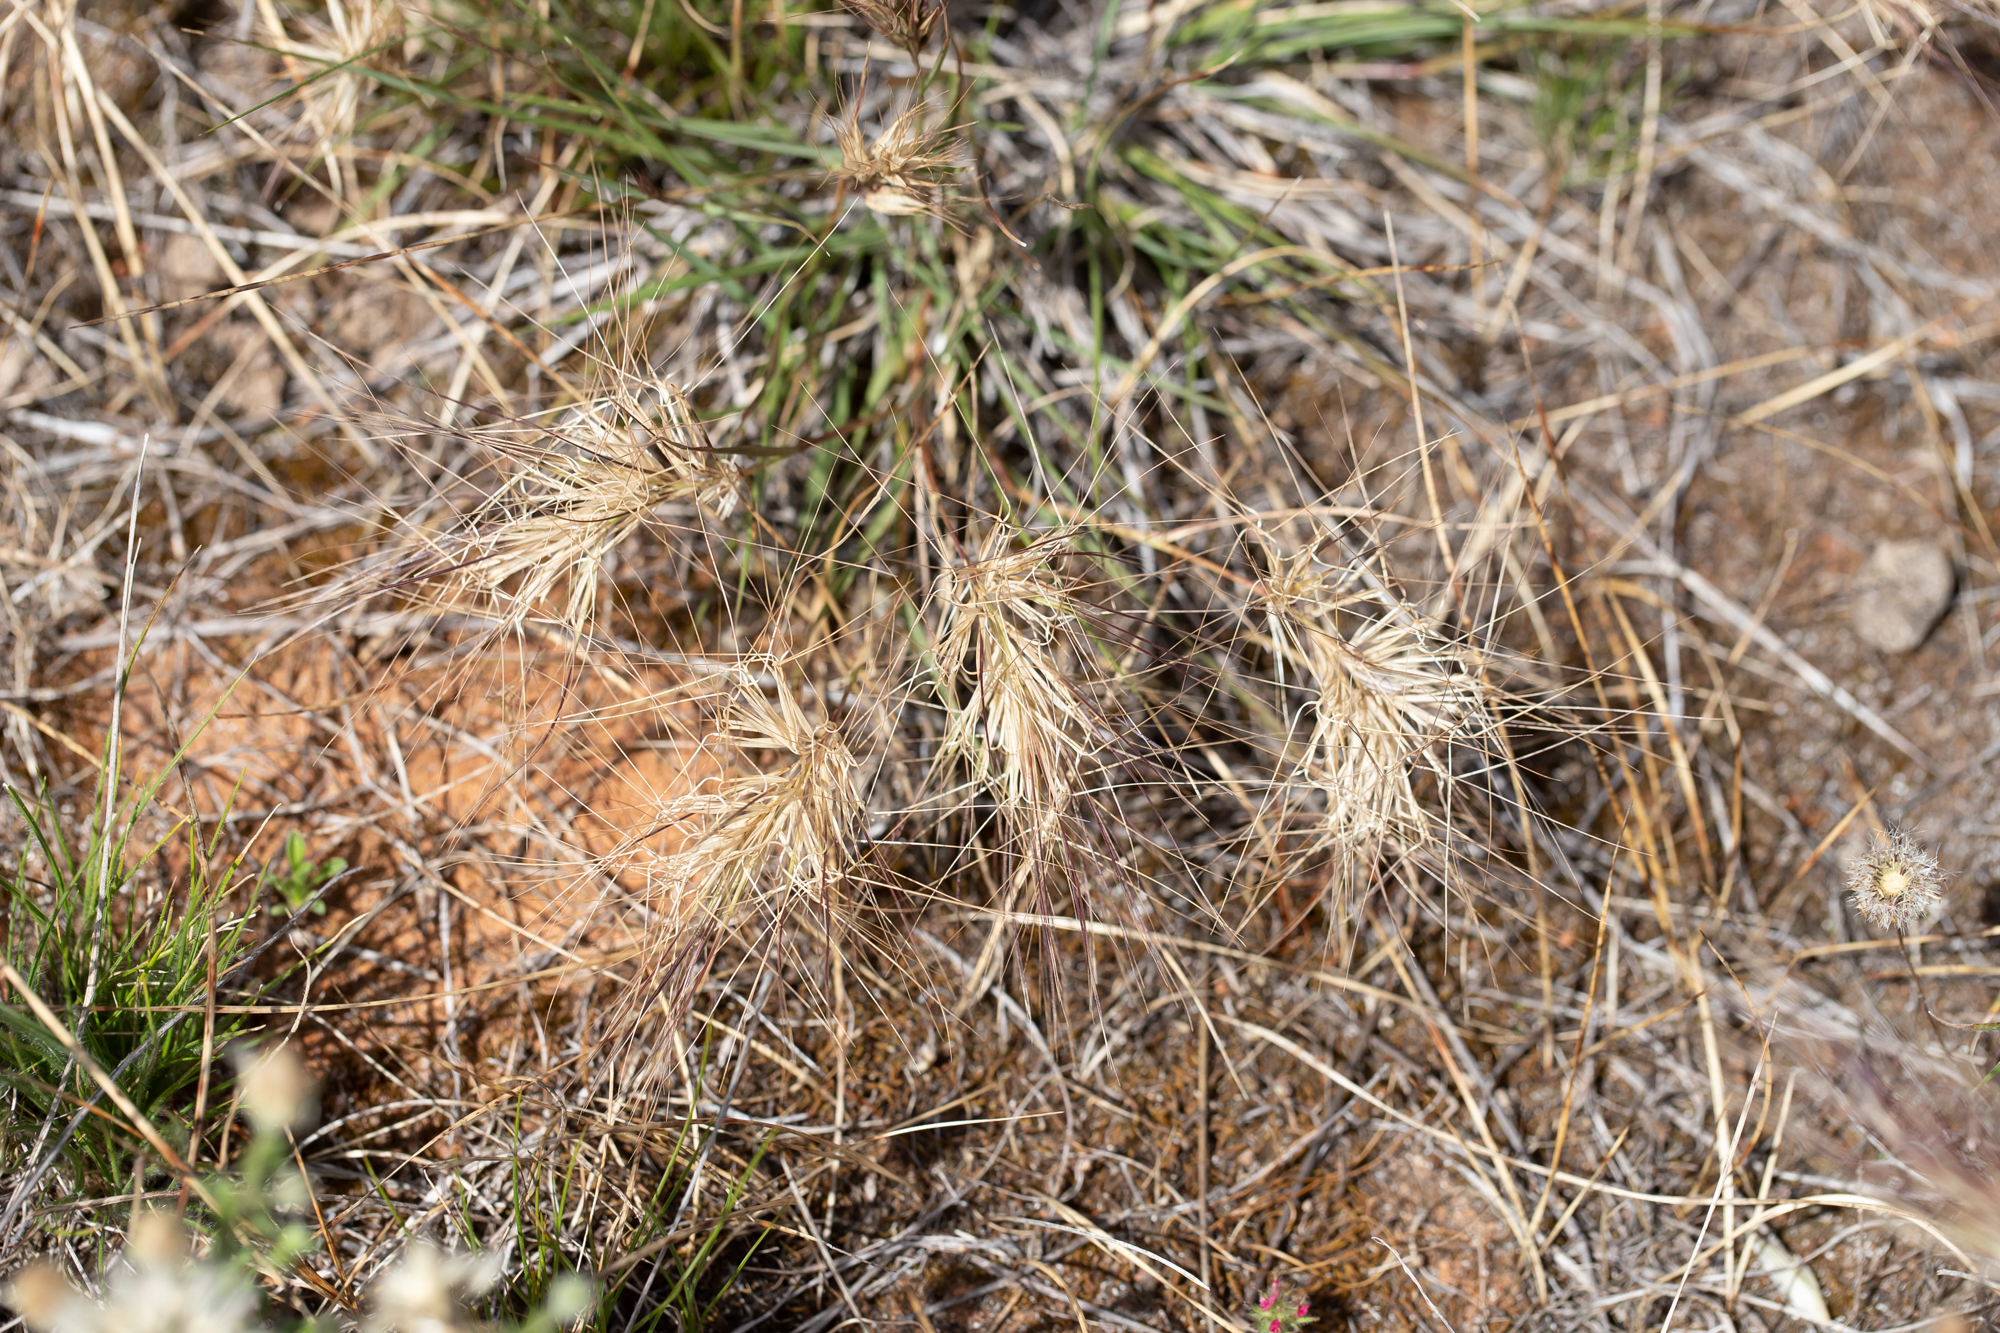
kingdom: Plantae
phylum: Tracheophyta
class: Liliopsida
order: Poales
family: Poaceae
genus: Aristida
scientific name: Aristida behriana
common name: Long-awn wire grass
